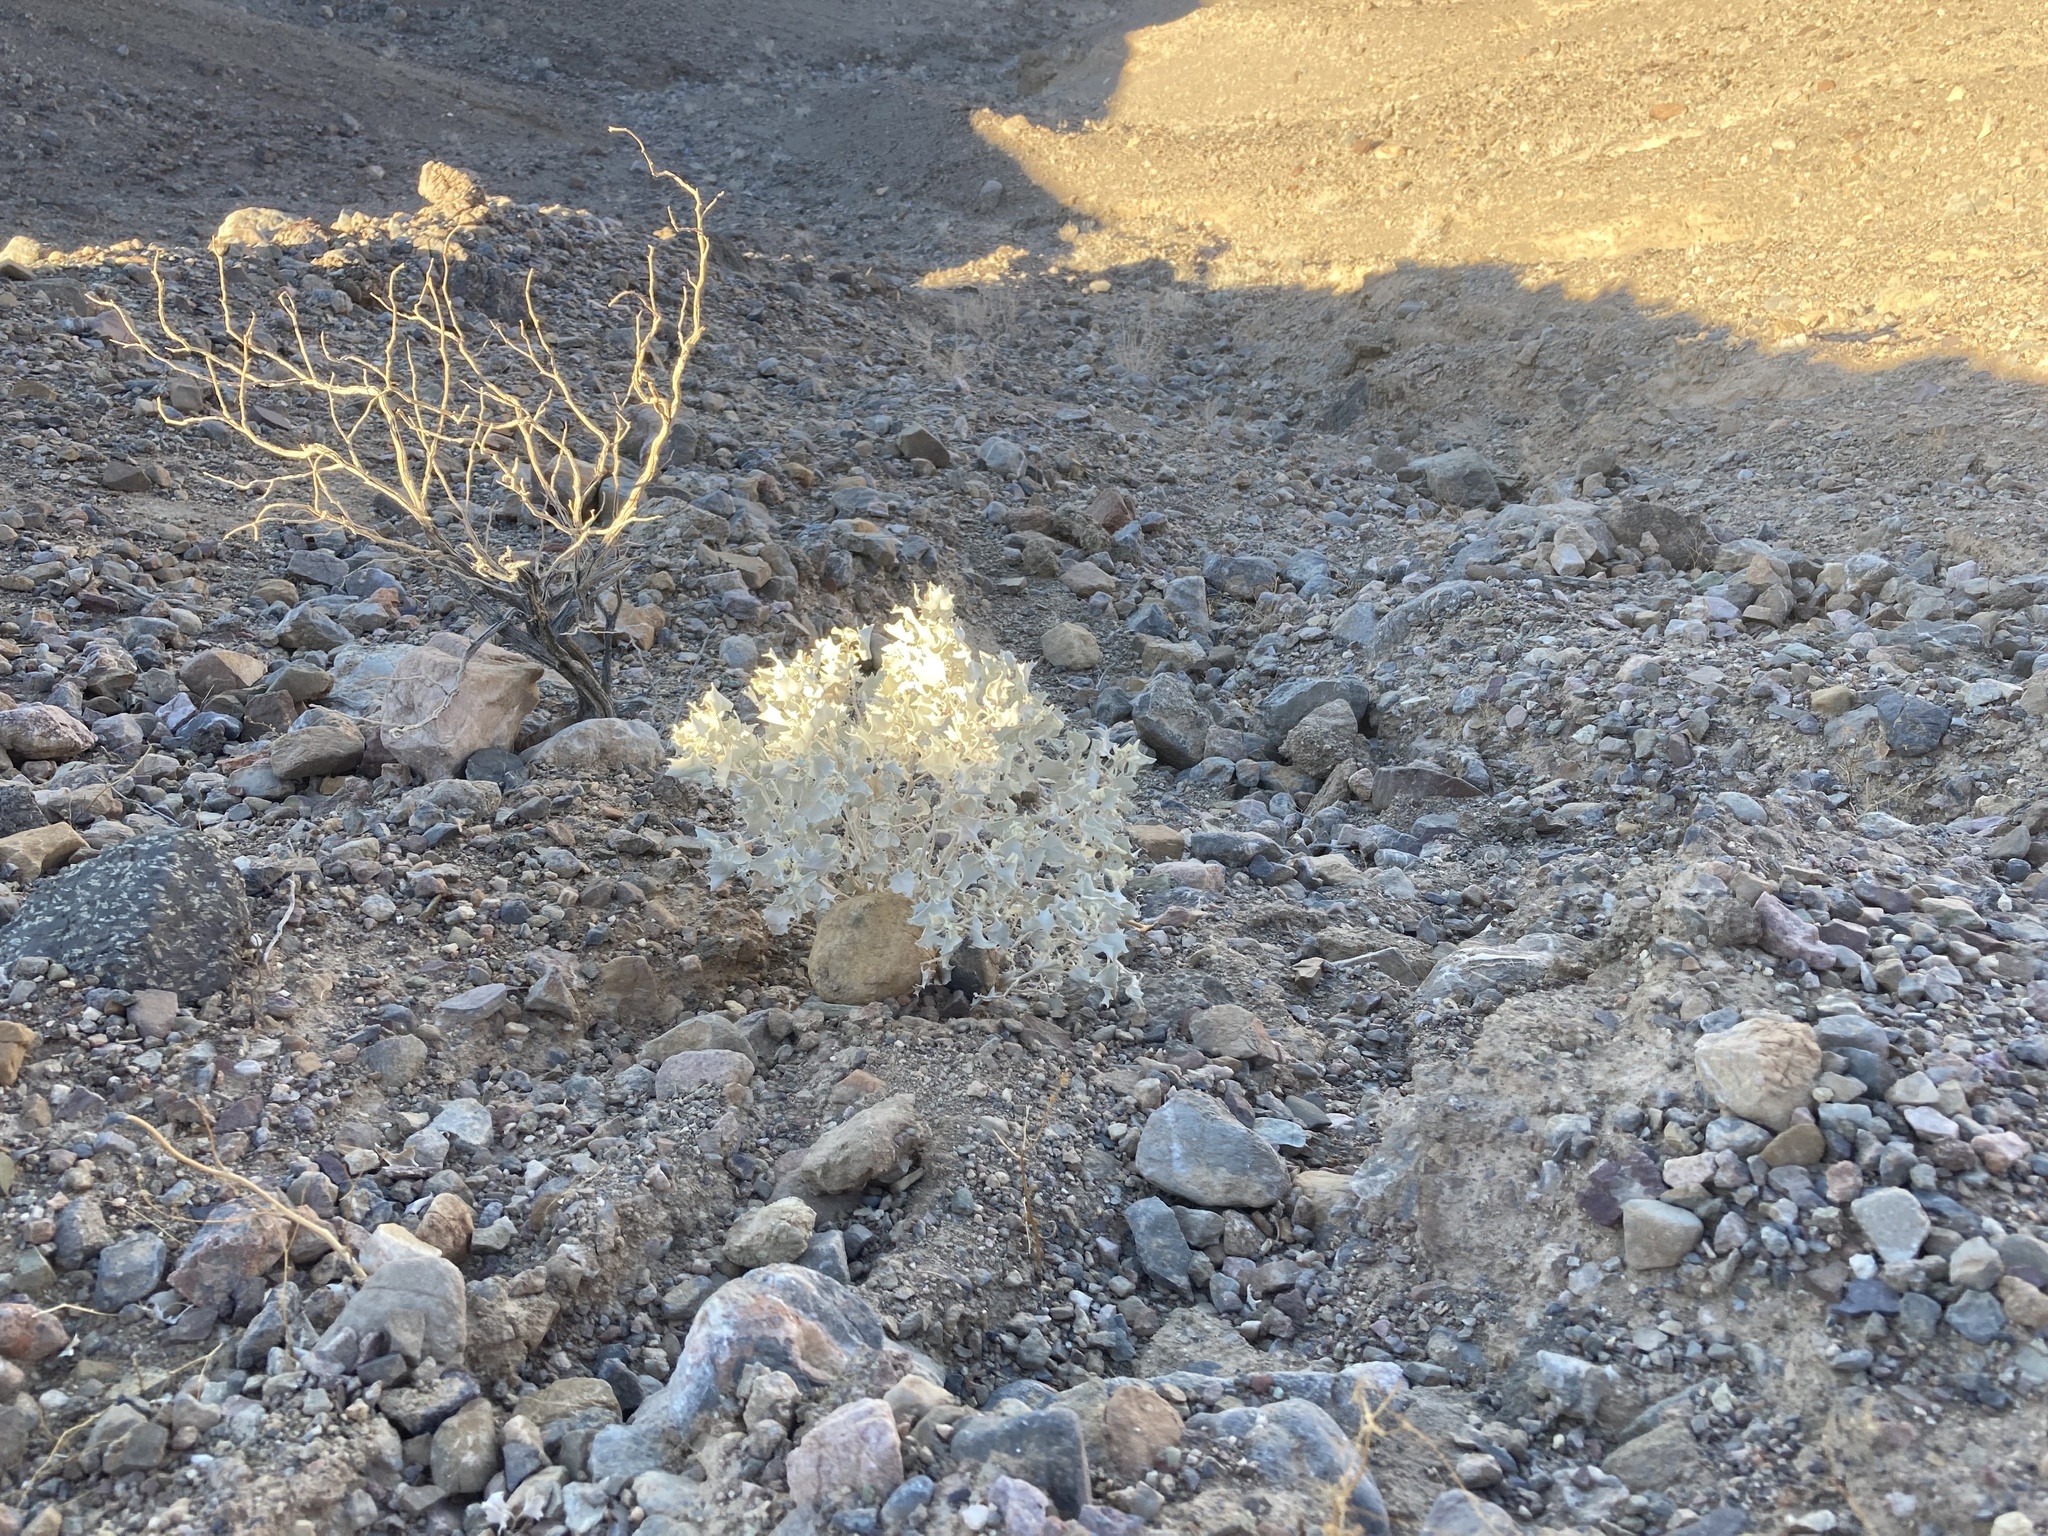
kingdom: Plantae
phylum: Tracheophyta
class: Magnoliopsida
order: Caryophyllales
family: Amaranthaceae
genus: Atriplex
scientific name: Atriplex hymenelytra
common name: Desert-holly
